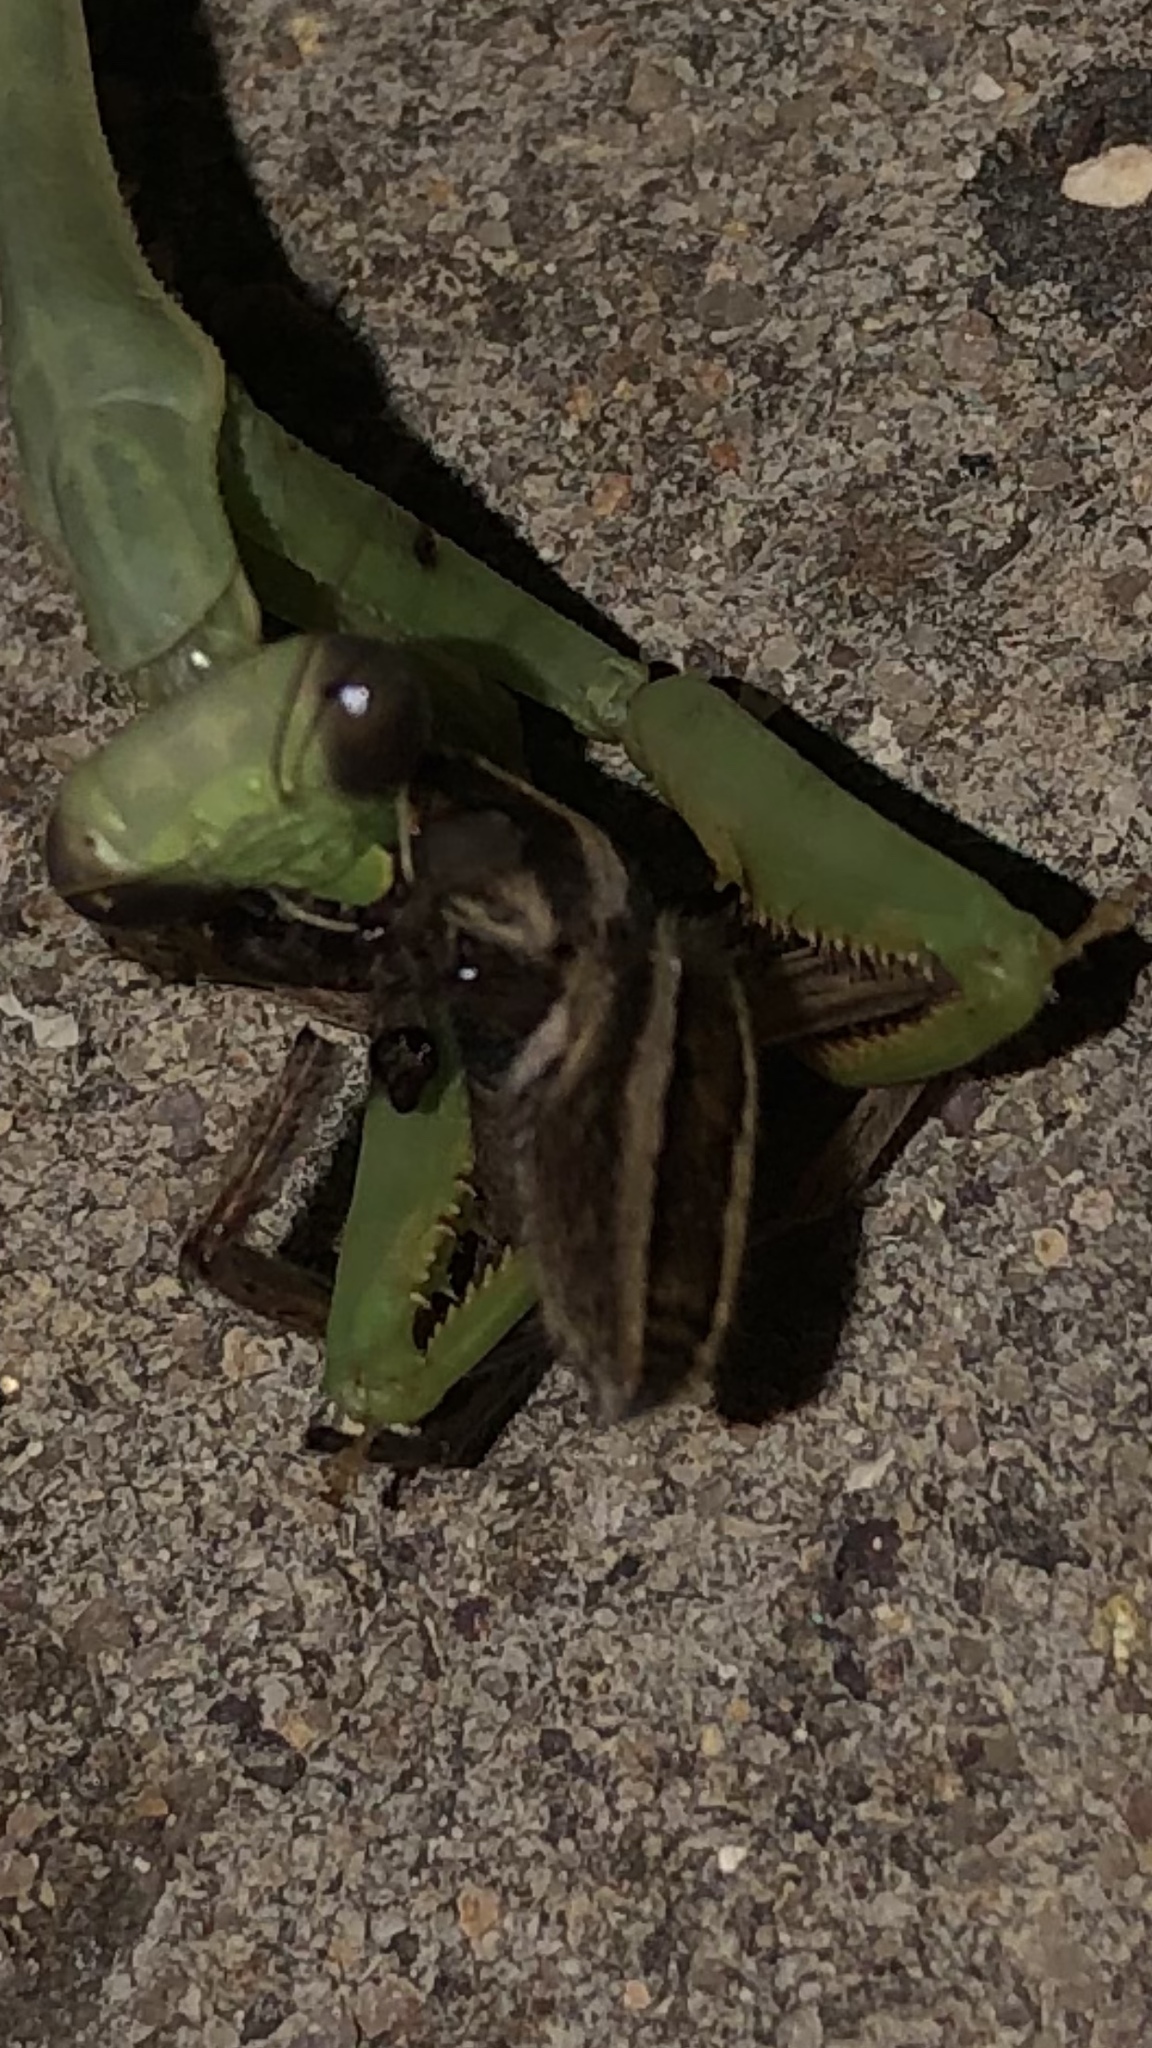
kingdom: Animalia
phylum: Arthropoda
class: Arachnida
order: Araneae
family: Lycosidae
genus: Rabidosa
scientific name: Rabidosa
